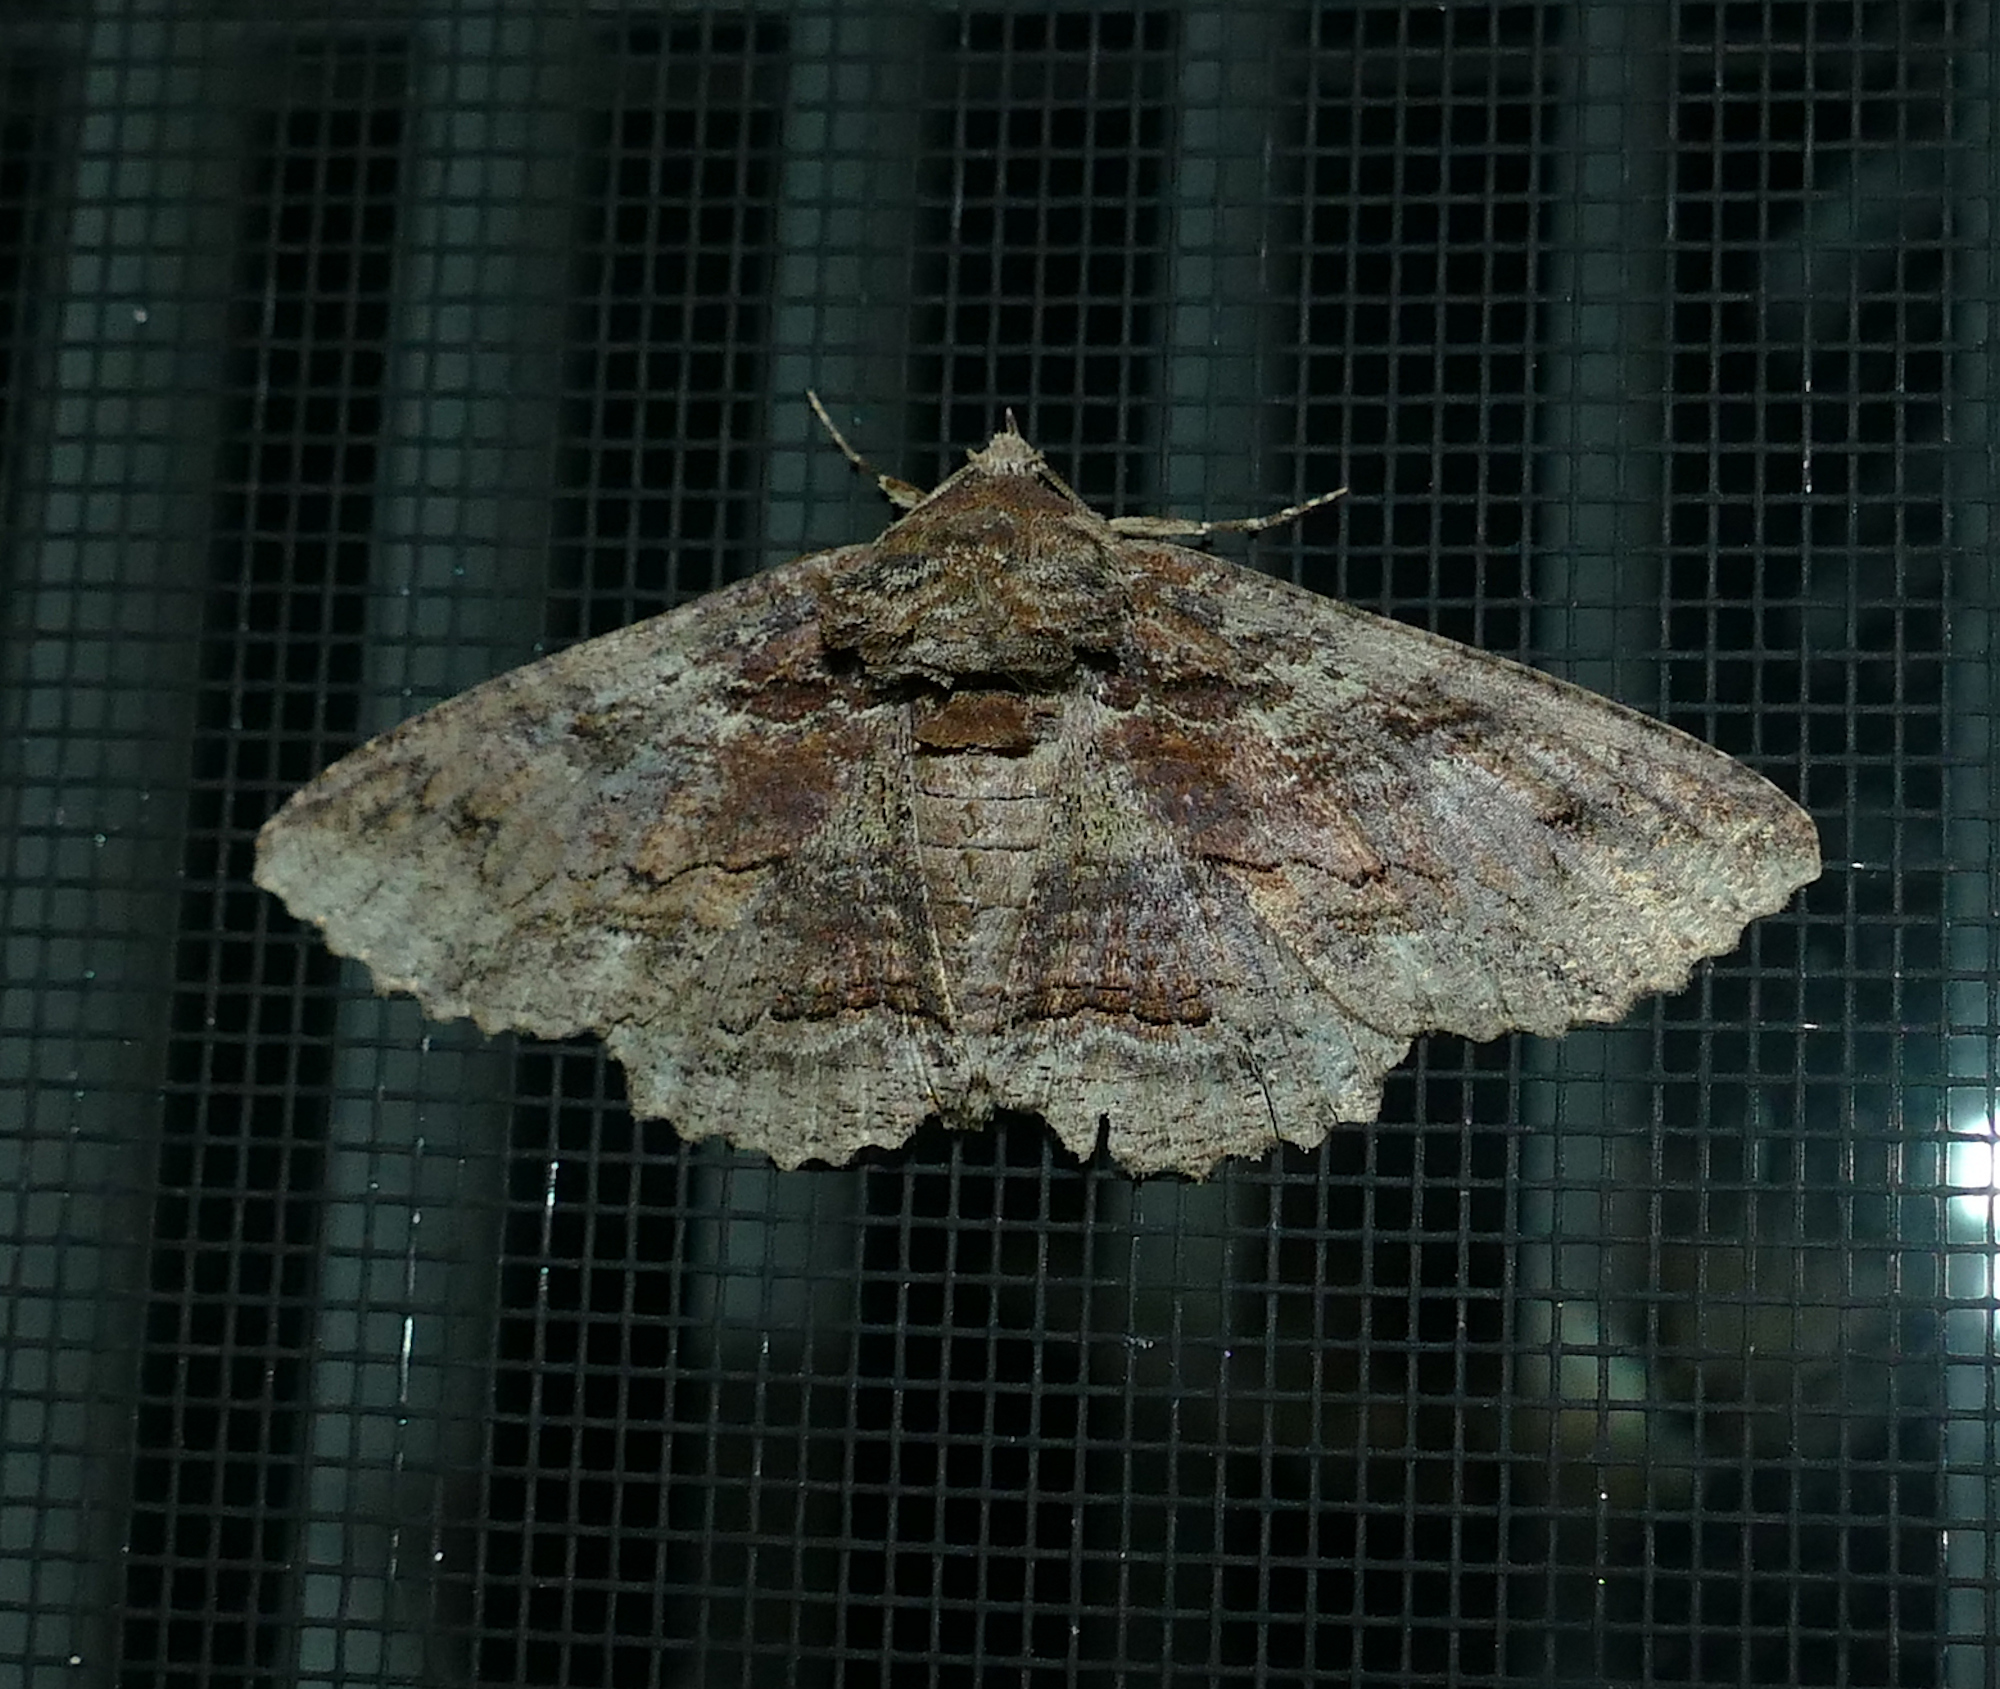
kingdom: Animalia
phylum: Arthropoda
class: Insecta
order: Lepidoptera
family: Erebidae
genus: Zale
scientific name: Zale lunata
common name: Lunate zale moth
